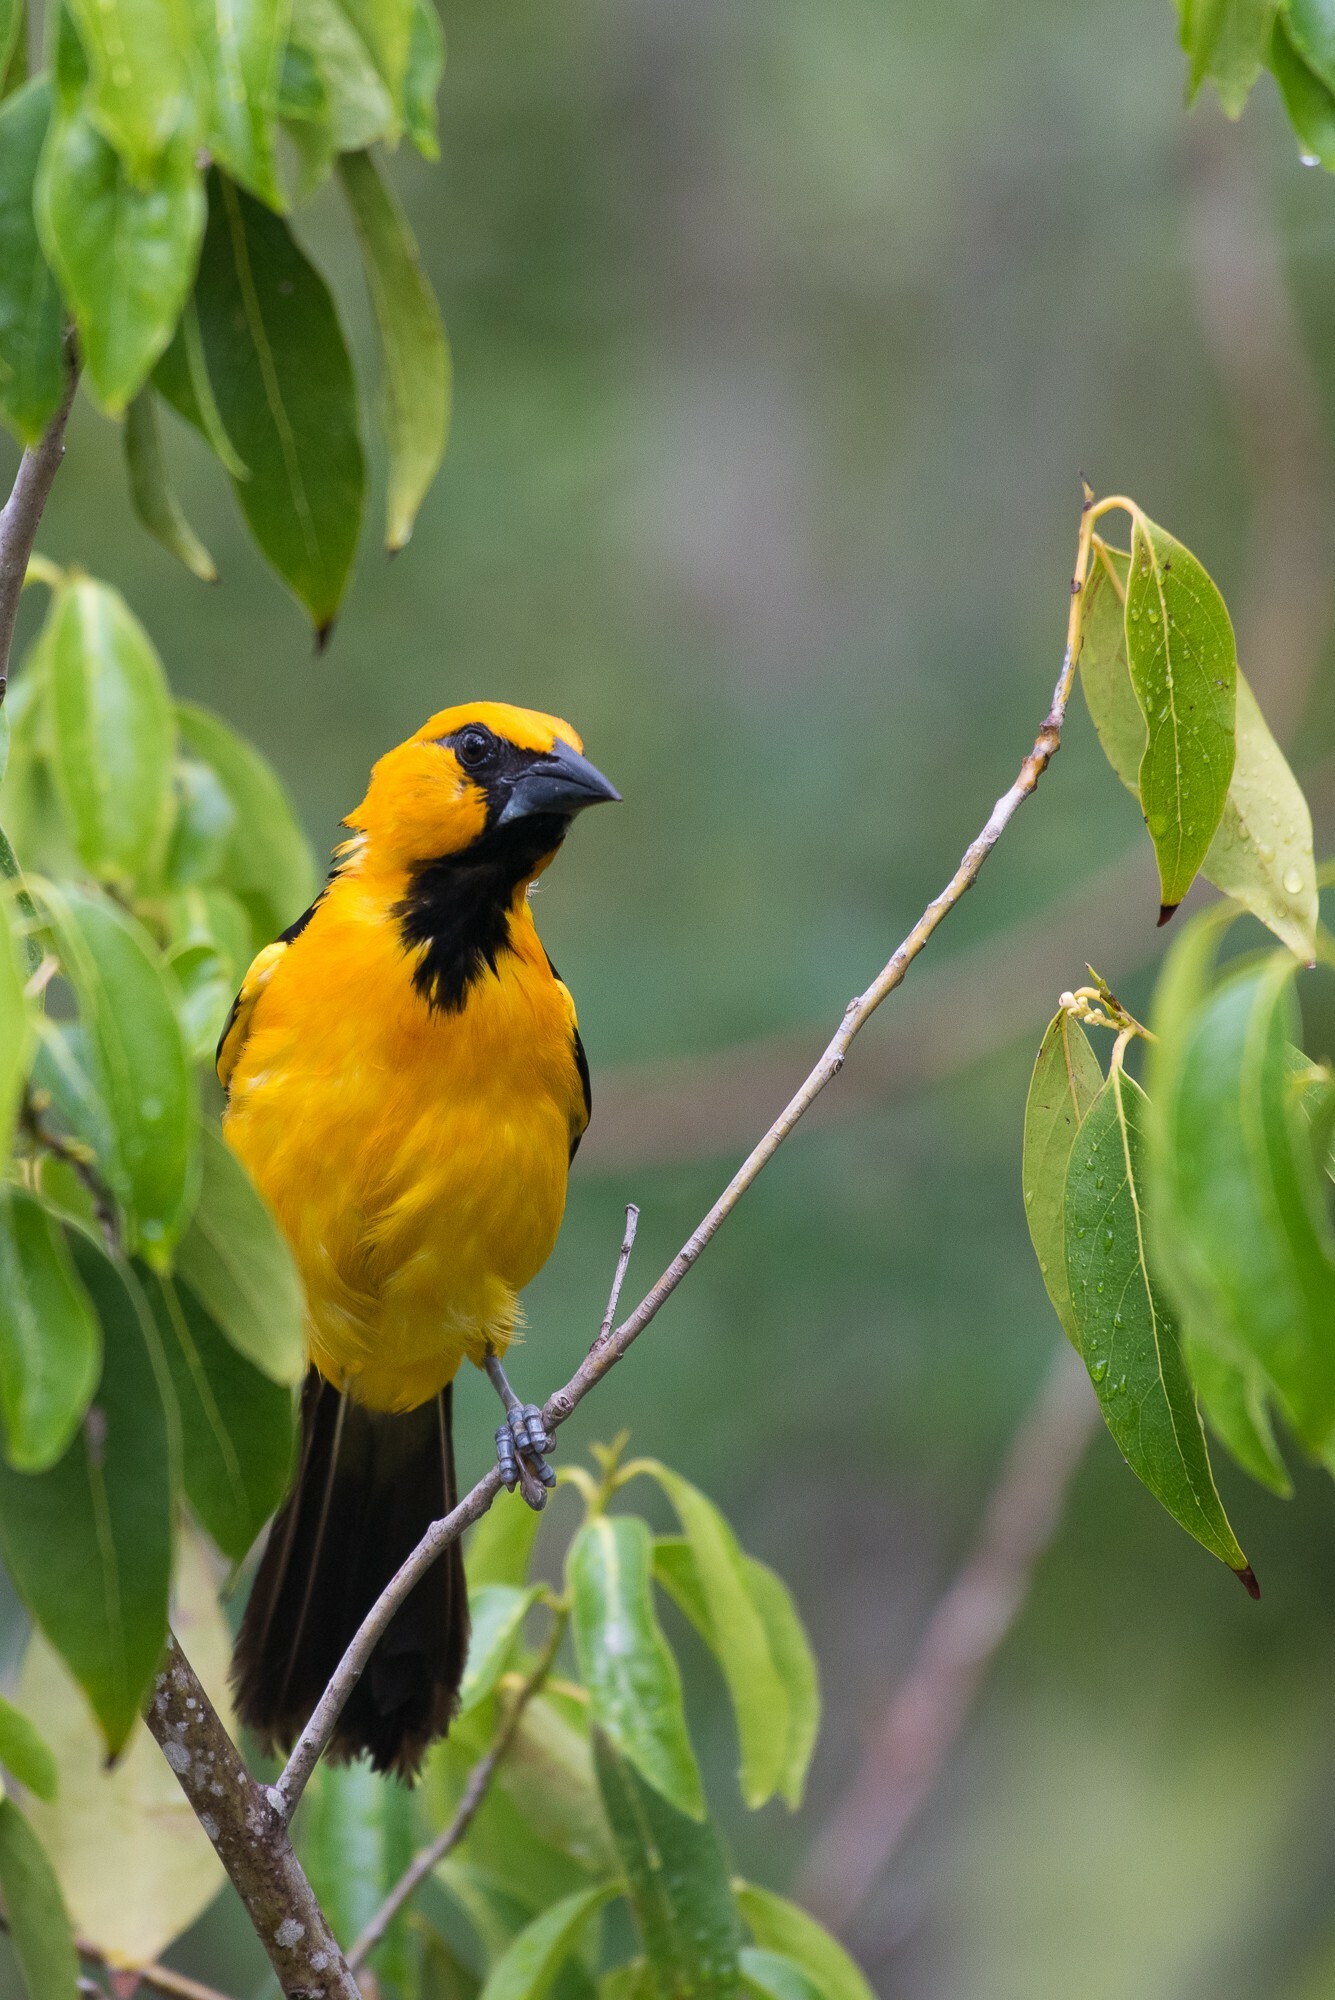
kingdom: Animalia
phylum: Chordata
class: Aves
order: Passeriformes
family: Icteridae
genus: Icterus
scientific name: Icterus gularis
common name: Altamira oriole
